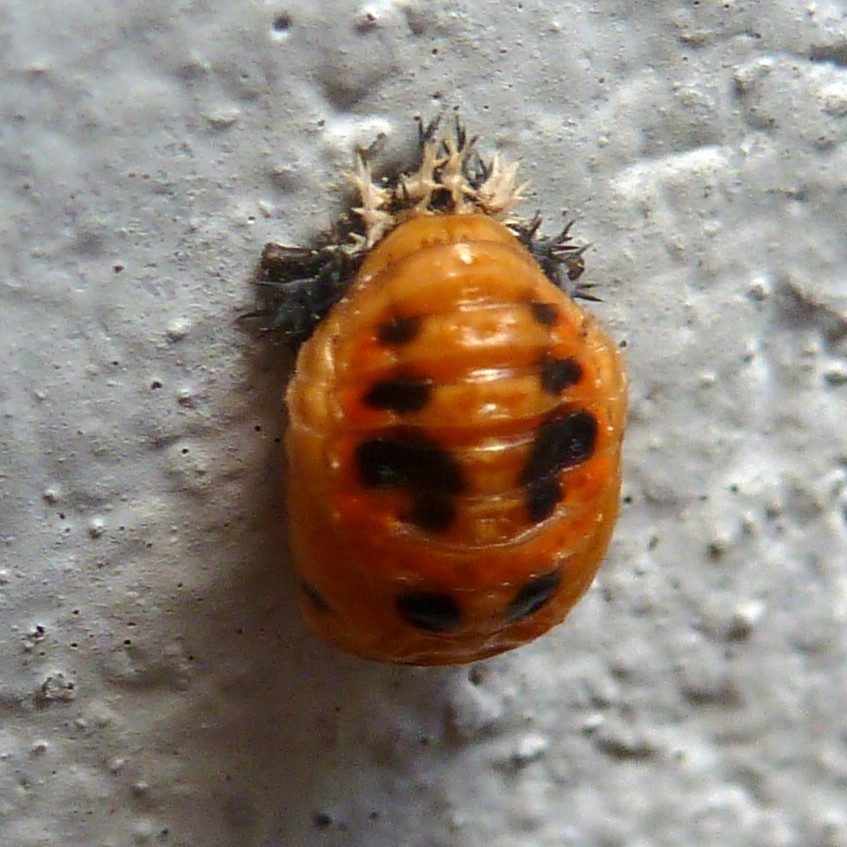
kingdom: Animalia
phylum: Arthropoda
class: Insecta
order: Coleoptera
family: Coccinellidae
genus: Harmonia
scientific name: Harmonia axyridis
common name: Harlequin ladybird
